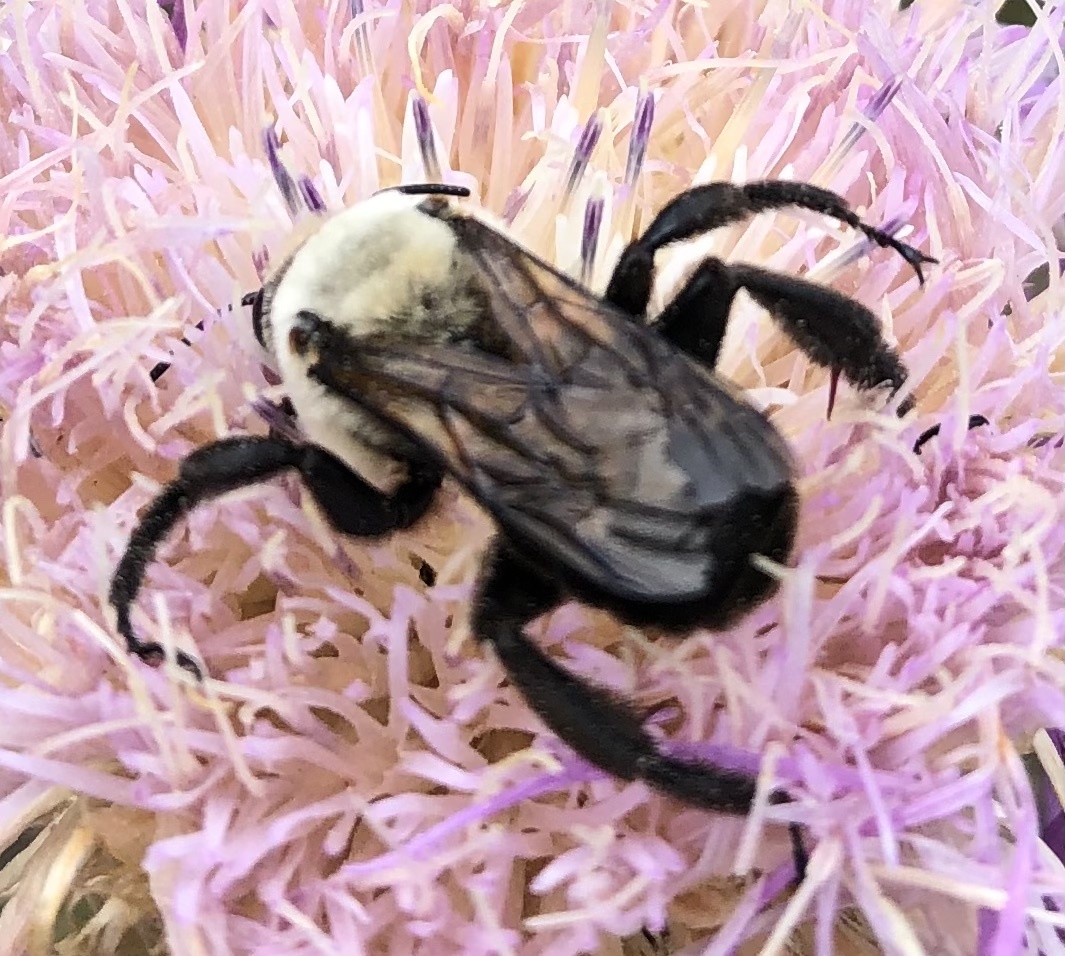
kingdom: Animalia
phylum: Arthropoda
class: Insecta
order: Hymenoptera
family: Apidae
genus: Ptilothrix
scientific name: Ptilothrix bombiformis
